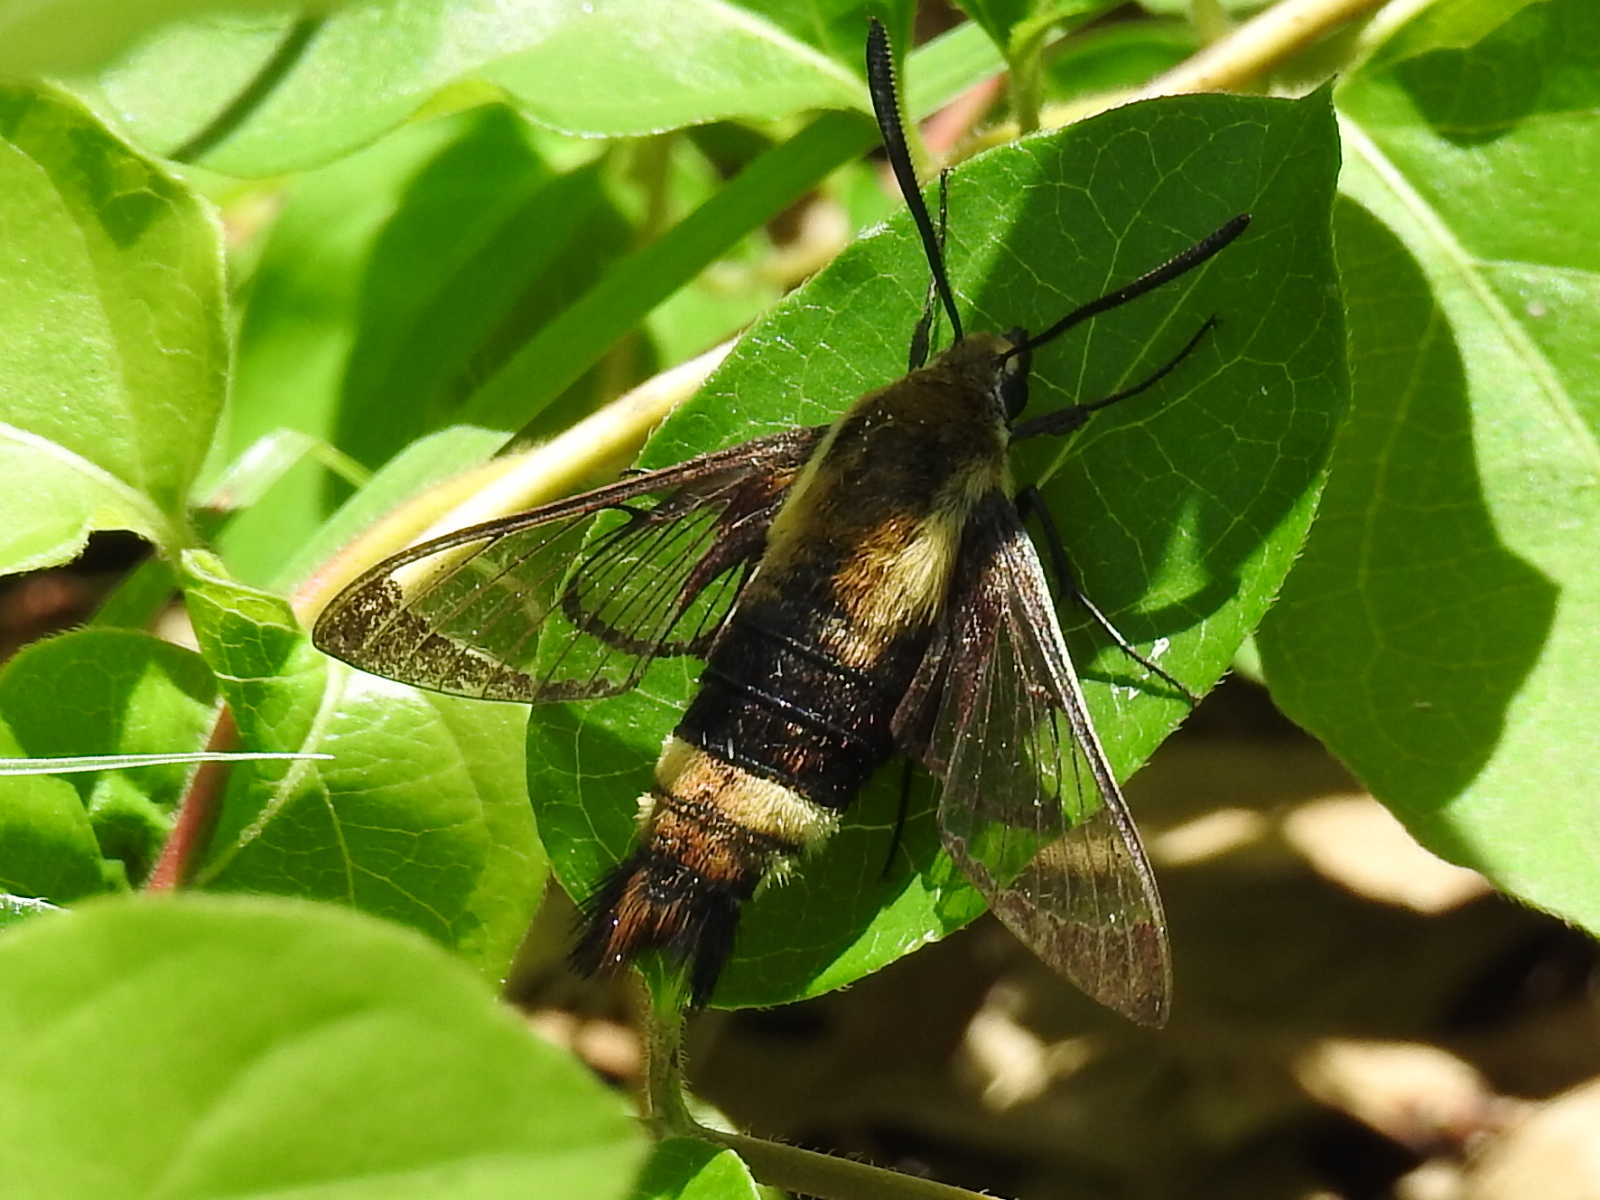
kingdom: Animalia
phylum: Arthropoda
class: Insecta
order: Lepidoptera
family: Sphingidae
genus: Hemaris
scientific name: Hemaris diffinis
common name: Bumblebee moth
